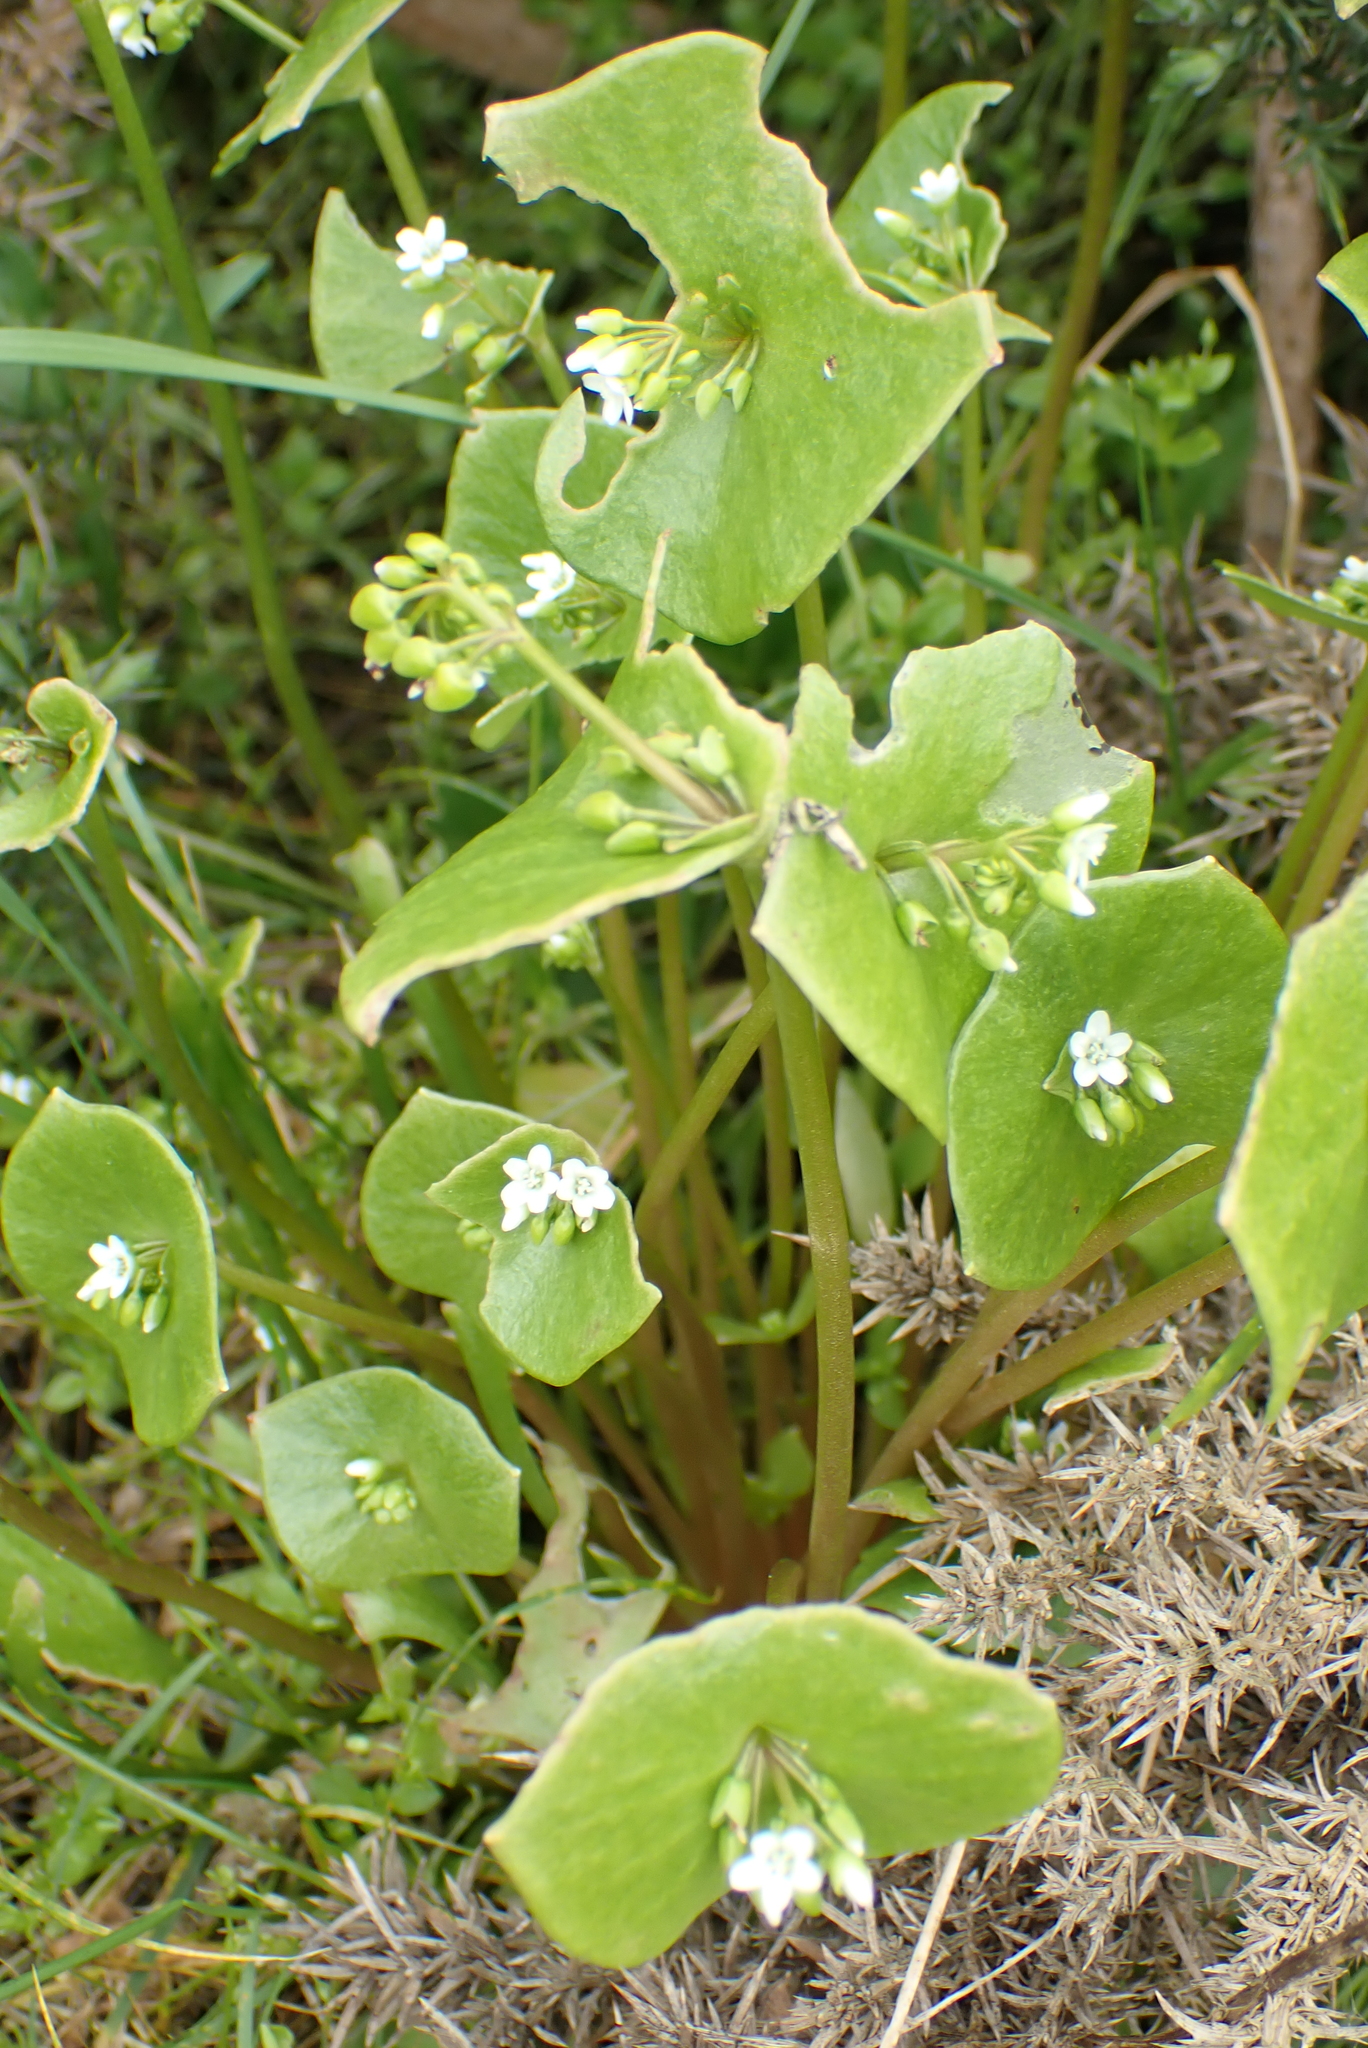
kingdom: Plantae
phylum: Tracheophyta
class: Magnoliopsida
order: Caryophyllales
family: Montiaceae
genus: Claytonia
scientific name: Claytonia perfoliata
